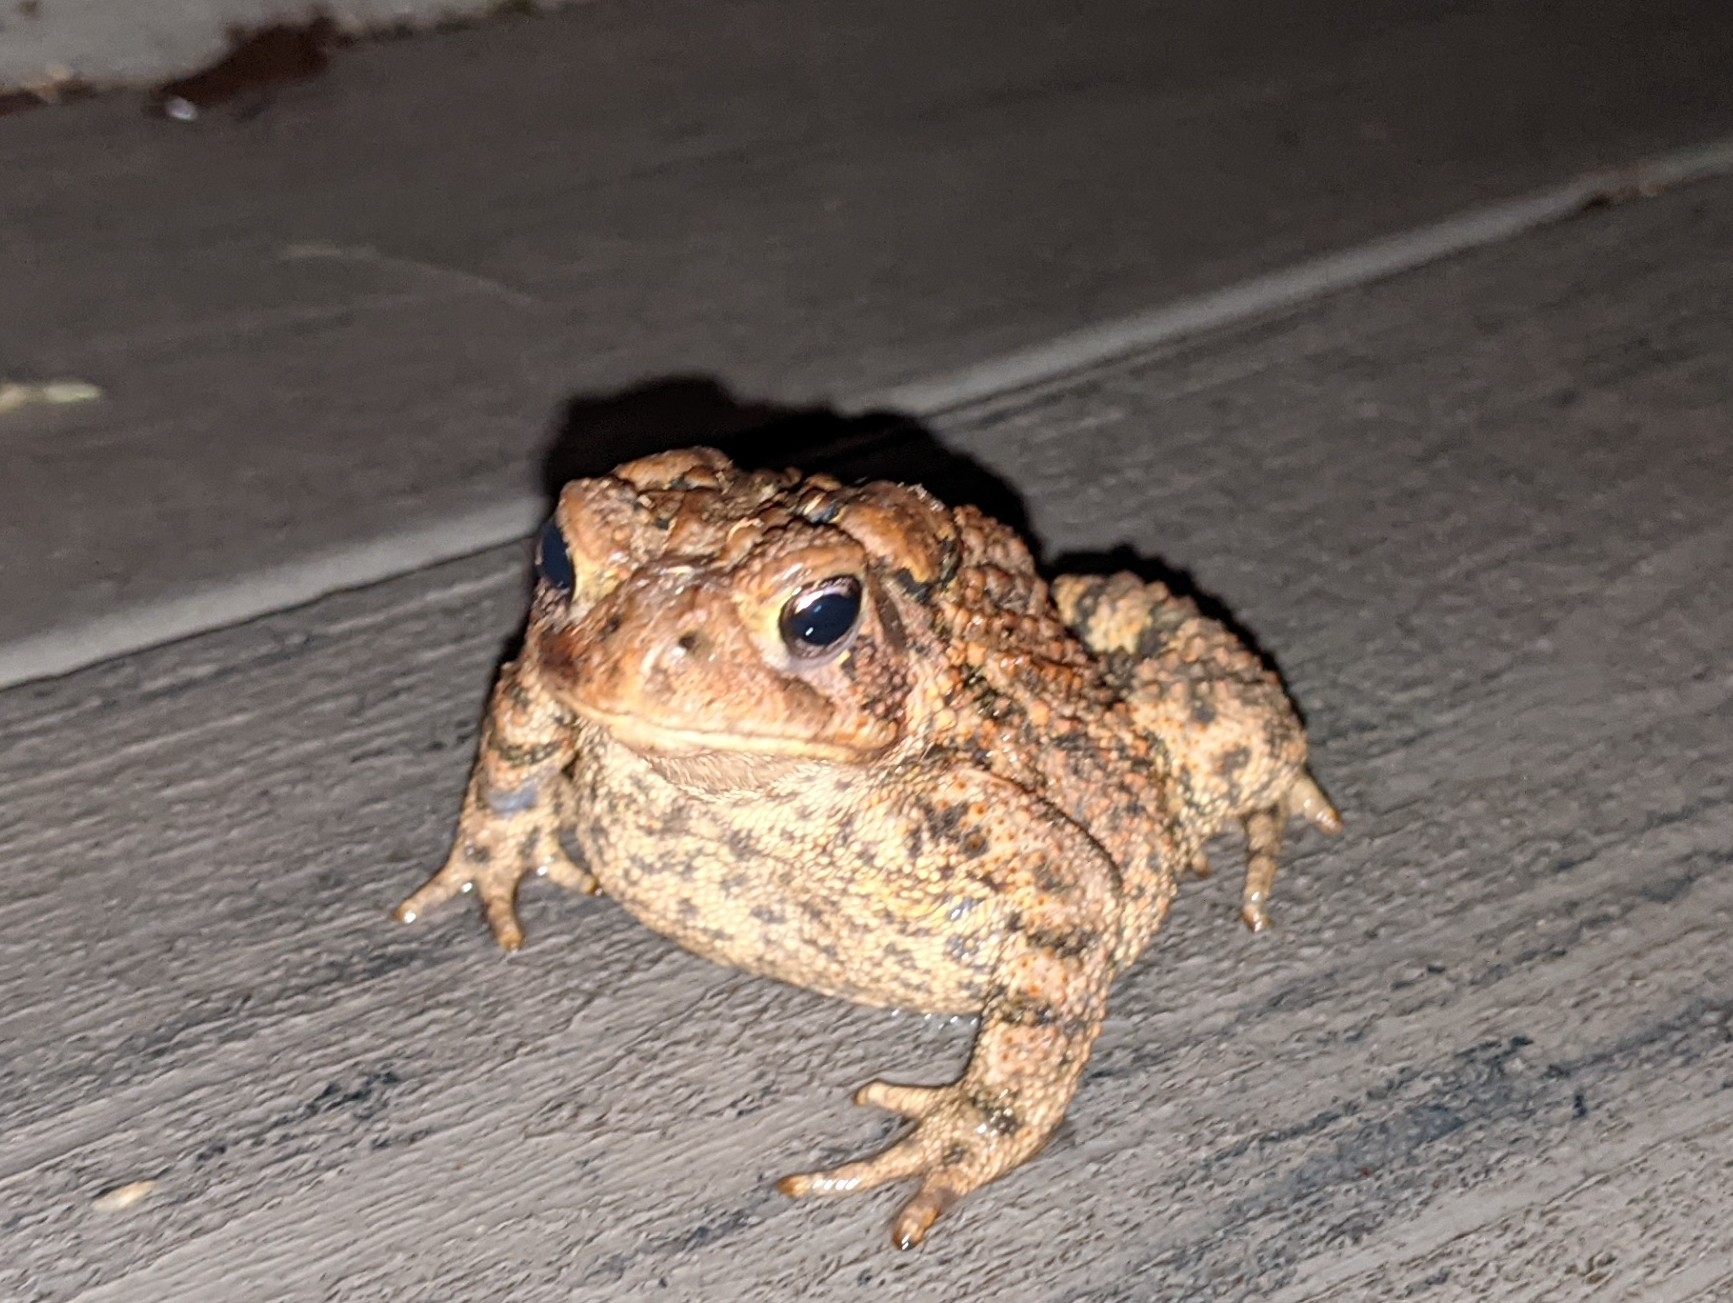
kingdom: Animalia
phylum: Chordata
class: Amphibia
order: Anura
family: Bufonidae
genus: Anaxyrus
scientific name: Anaxyrus americanus
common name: American toad
